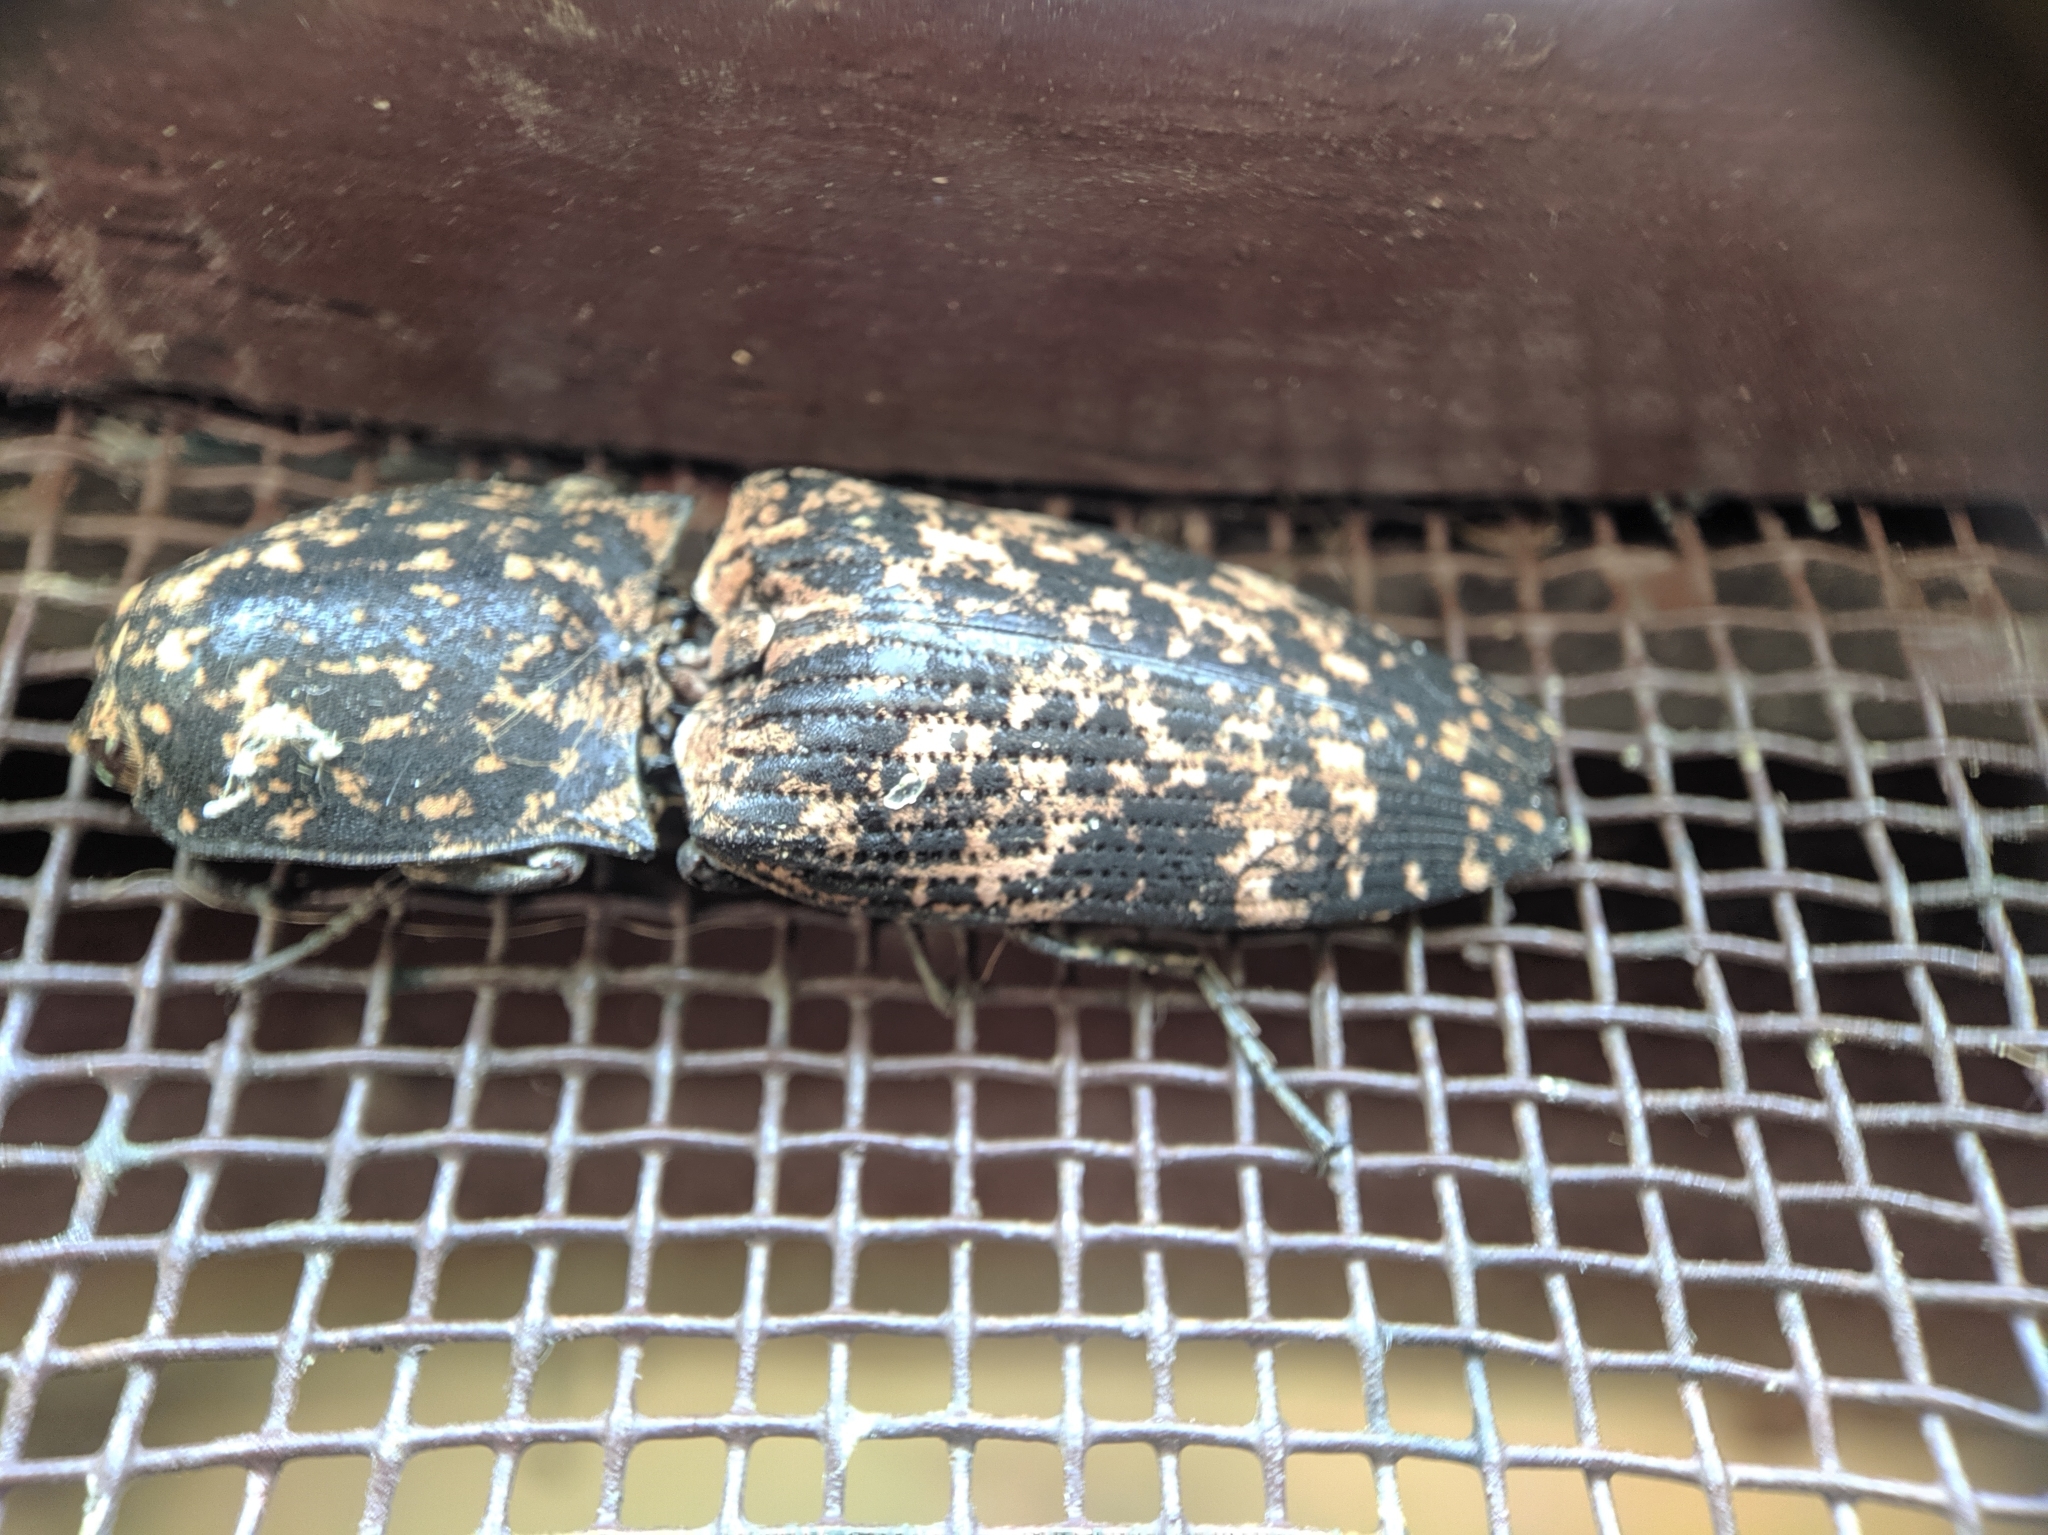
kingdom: Animalia
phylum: Arthropoda
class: Insecta
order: Coleoptera
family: Elateridae
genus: Cryptalaus
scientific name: Cryptalaus
